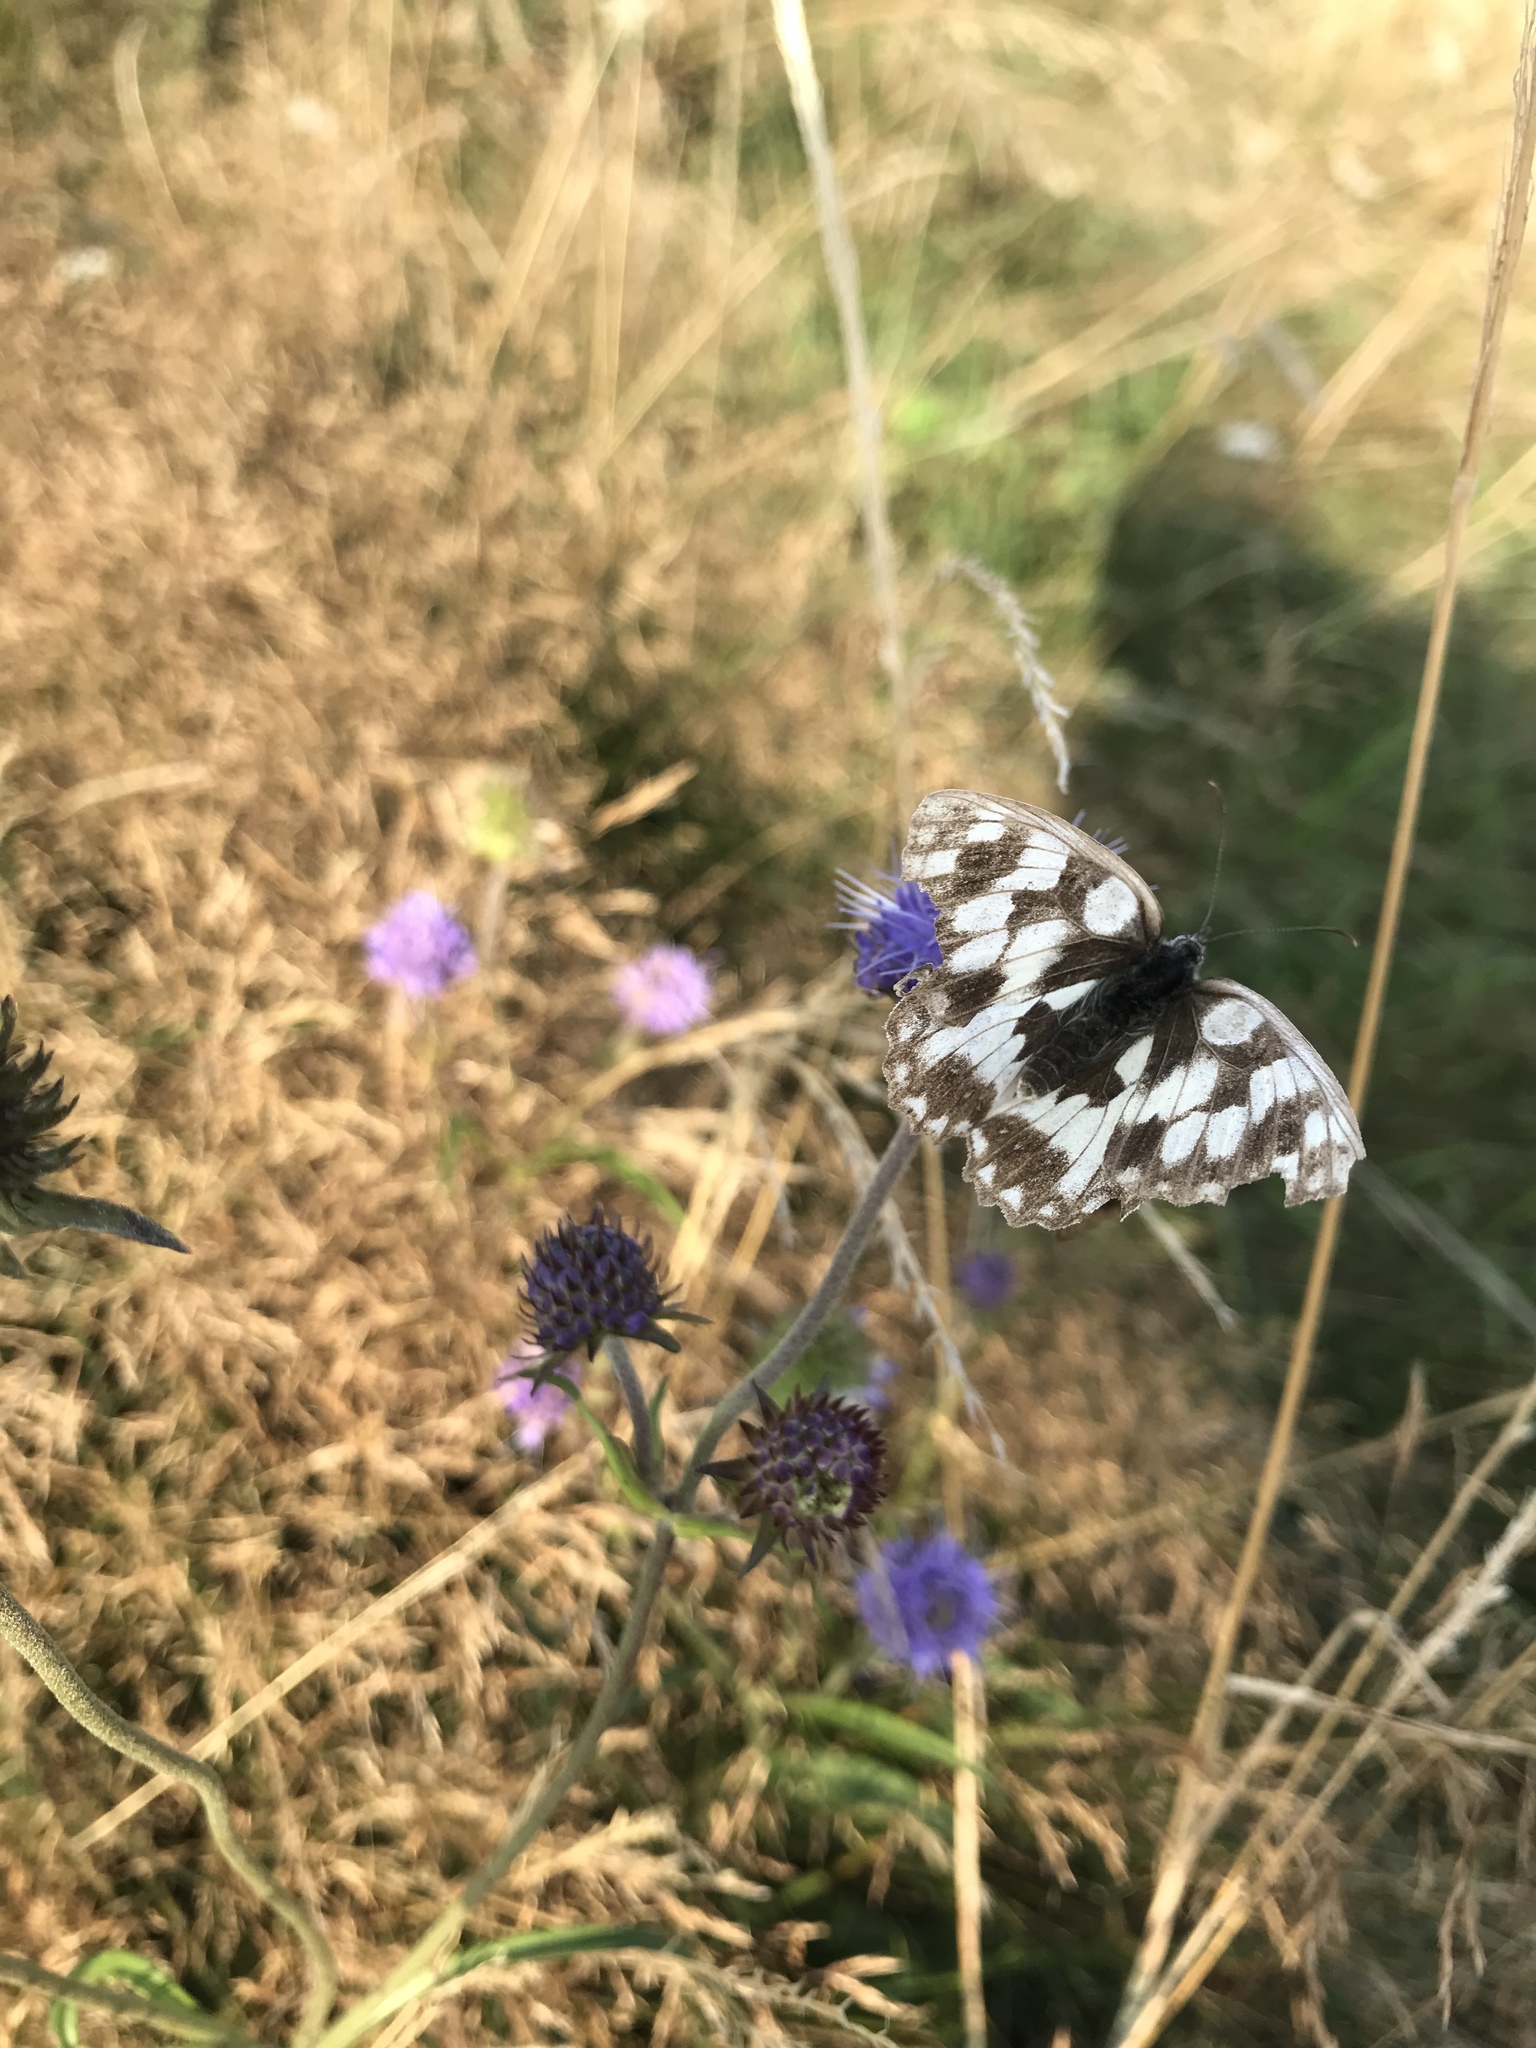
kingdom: Animalia
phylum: Arthropoda
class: Insecta
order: Lepidoptera
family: Nymphalidae
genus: Melanargia
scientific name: Melanargia galathea
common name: Marbled white
